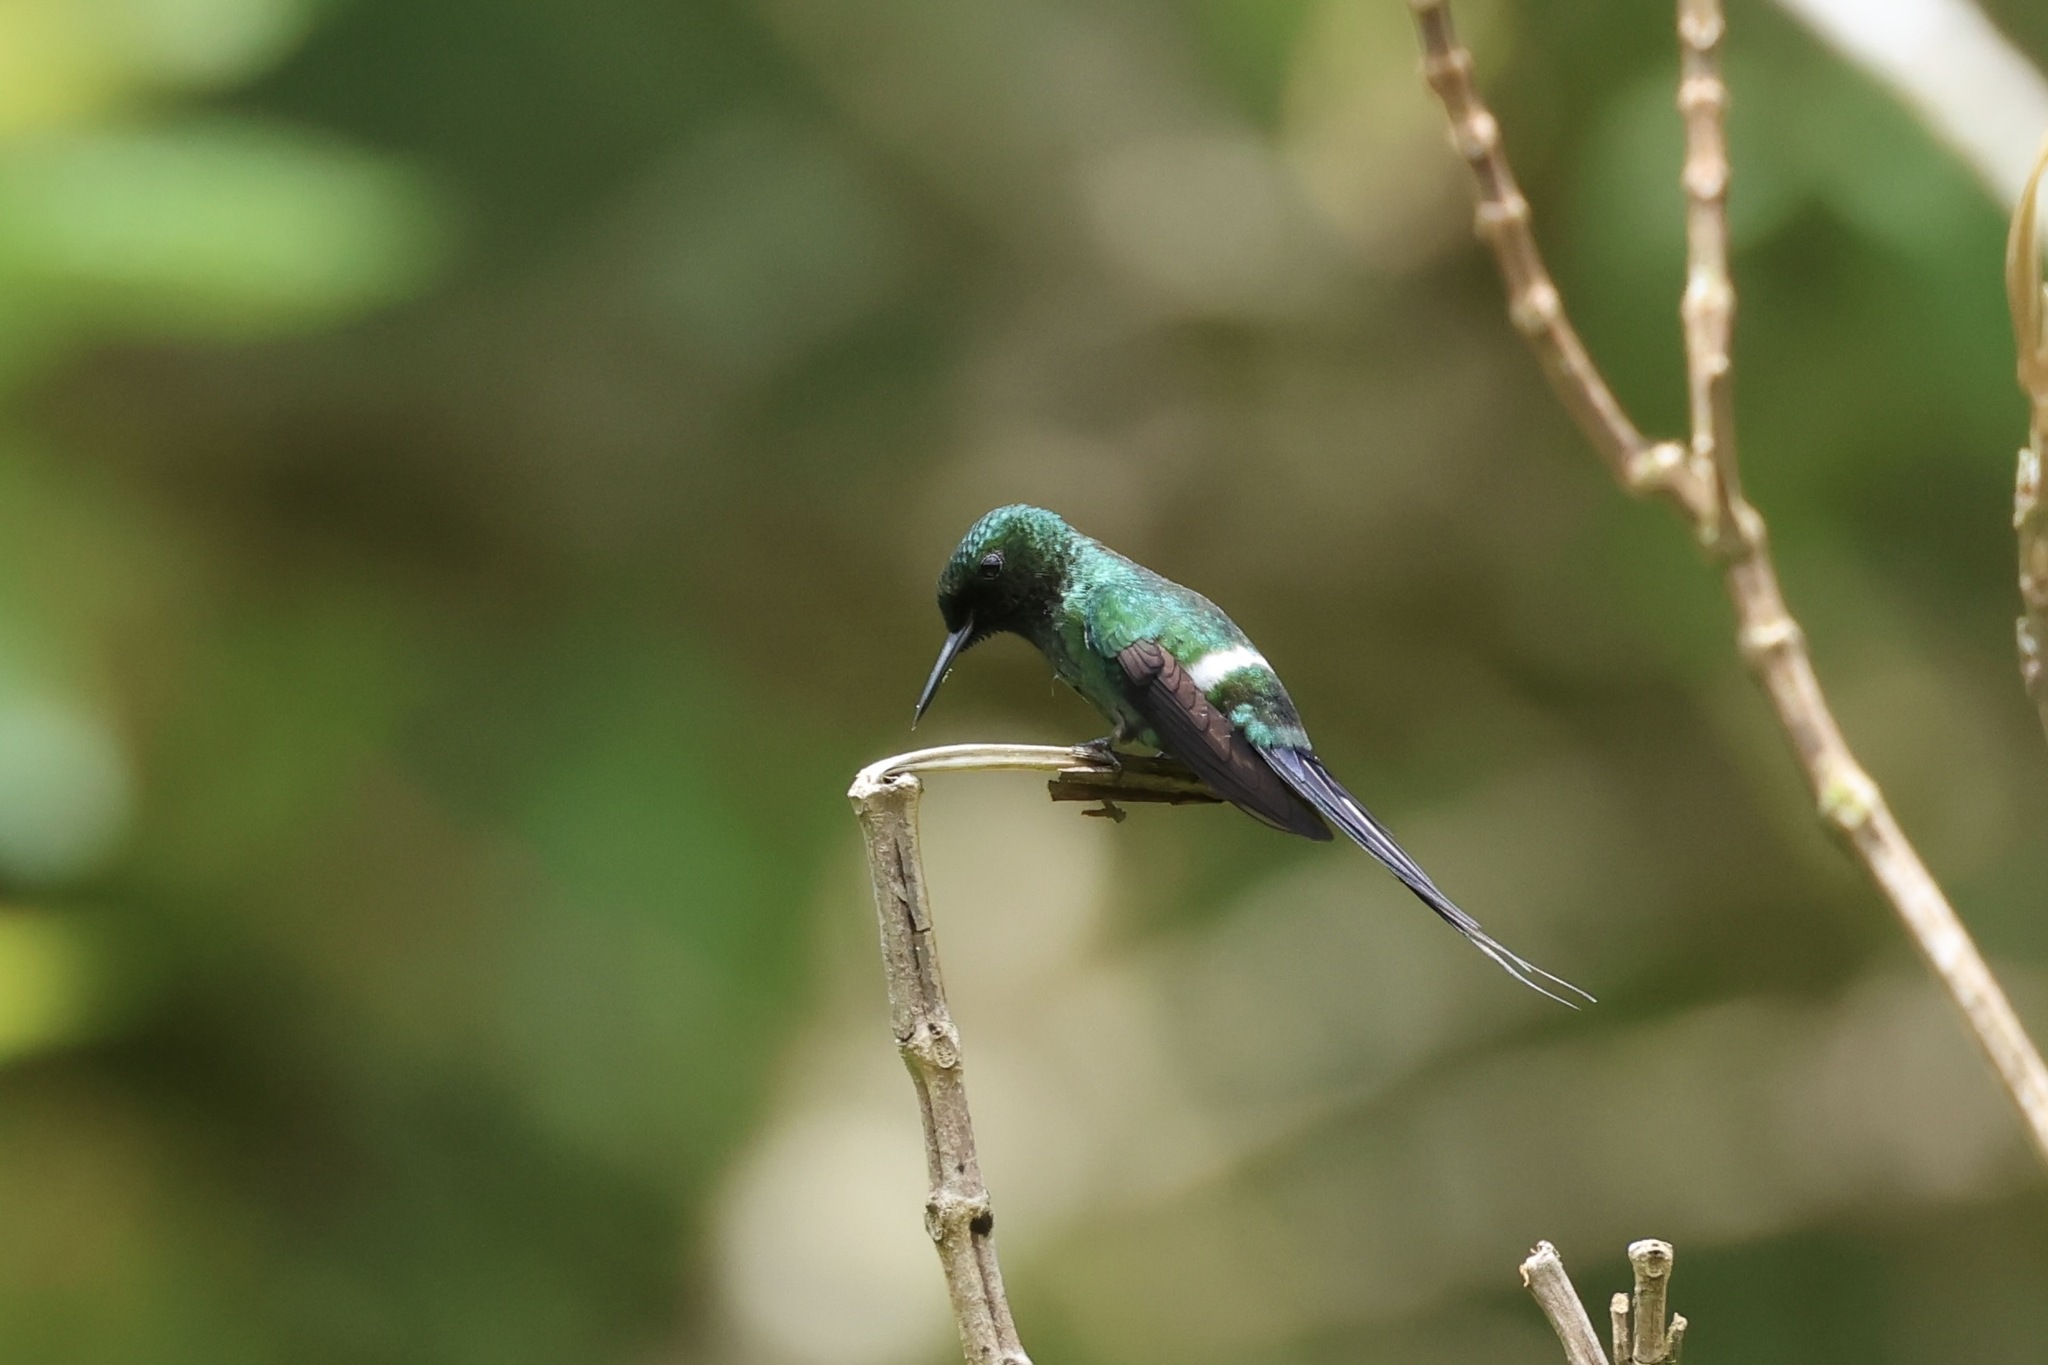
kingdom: Animalia
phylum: Chordata
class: Aves
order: Apodiformes
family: Trochilidae
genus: Discosura
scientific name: Discosura conversii
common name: Green thorntail
